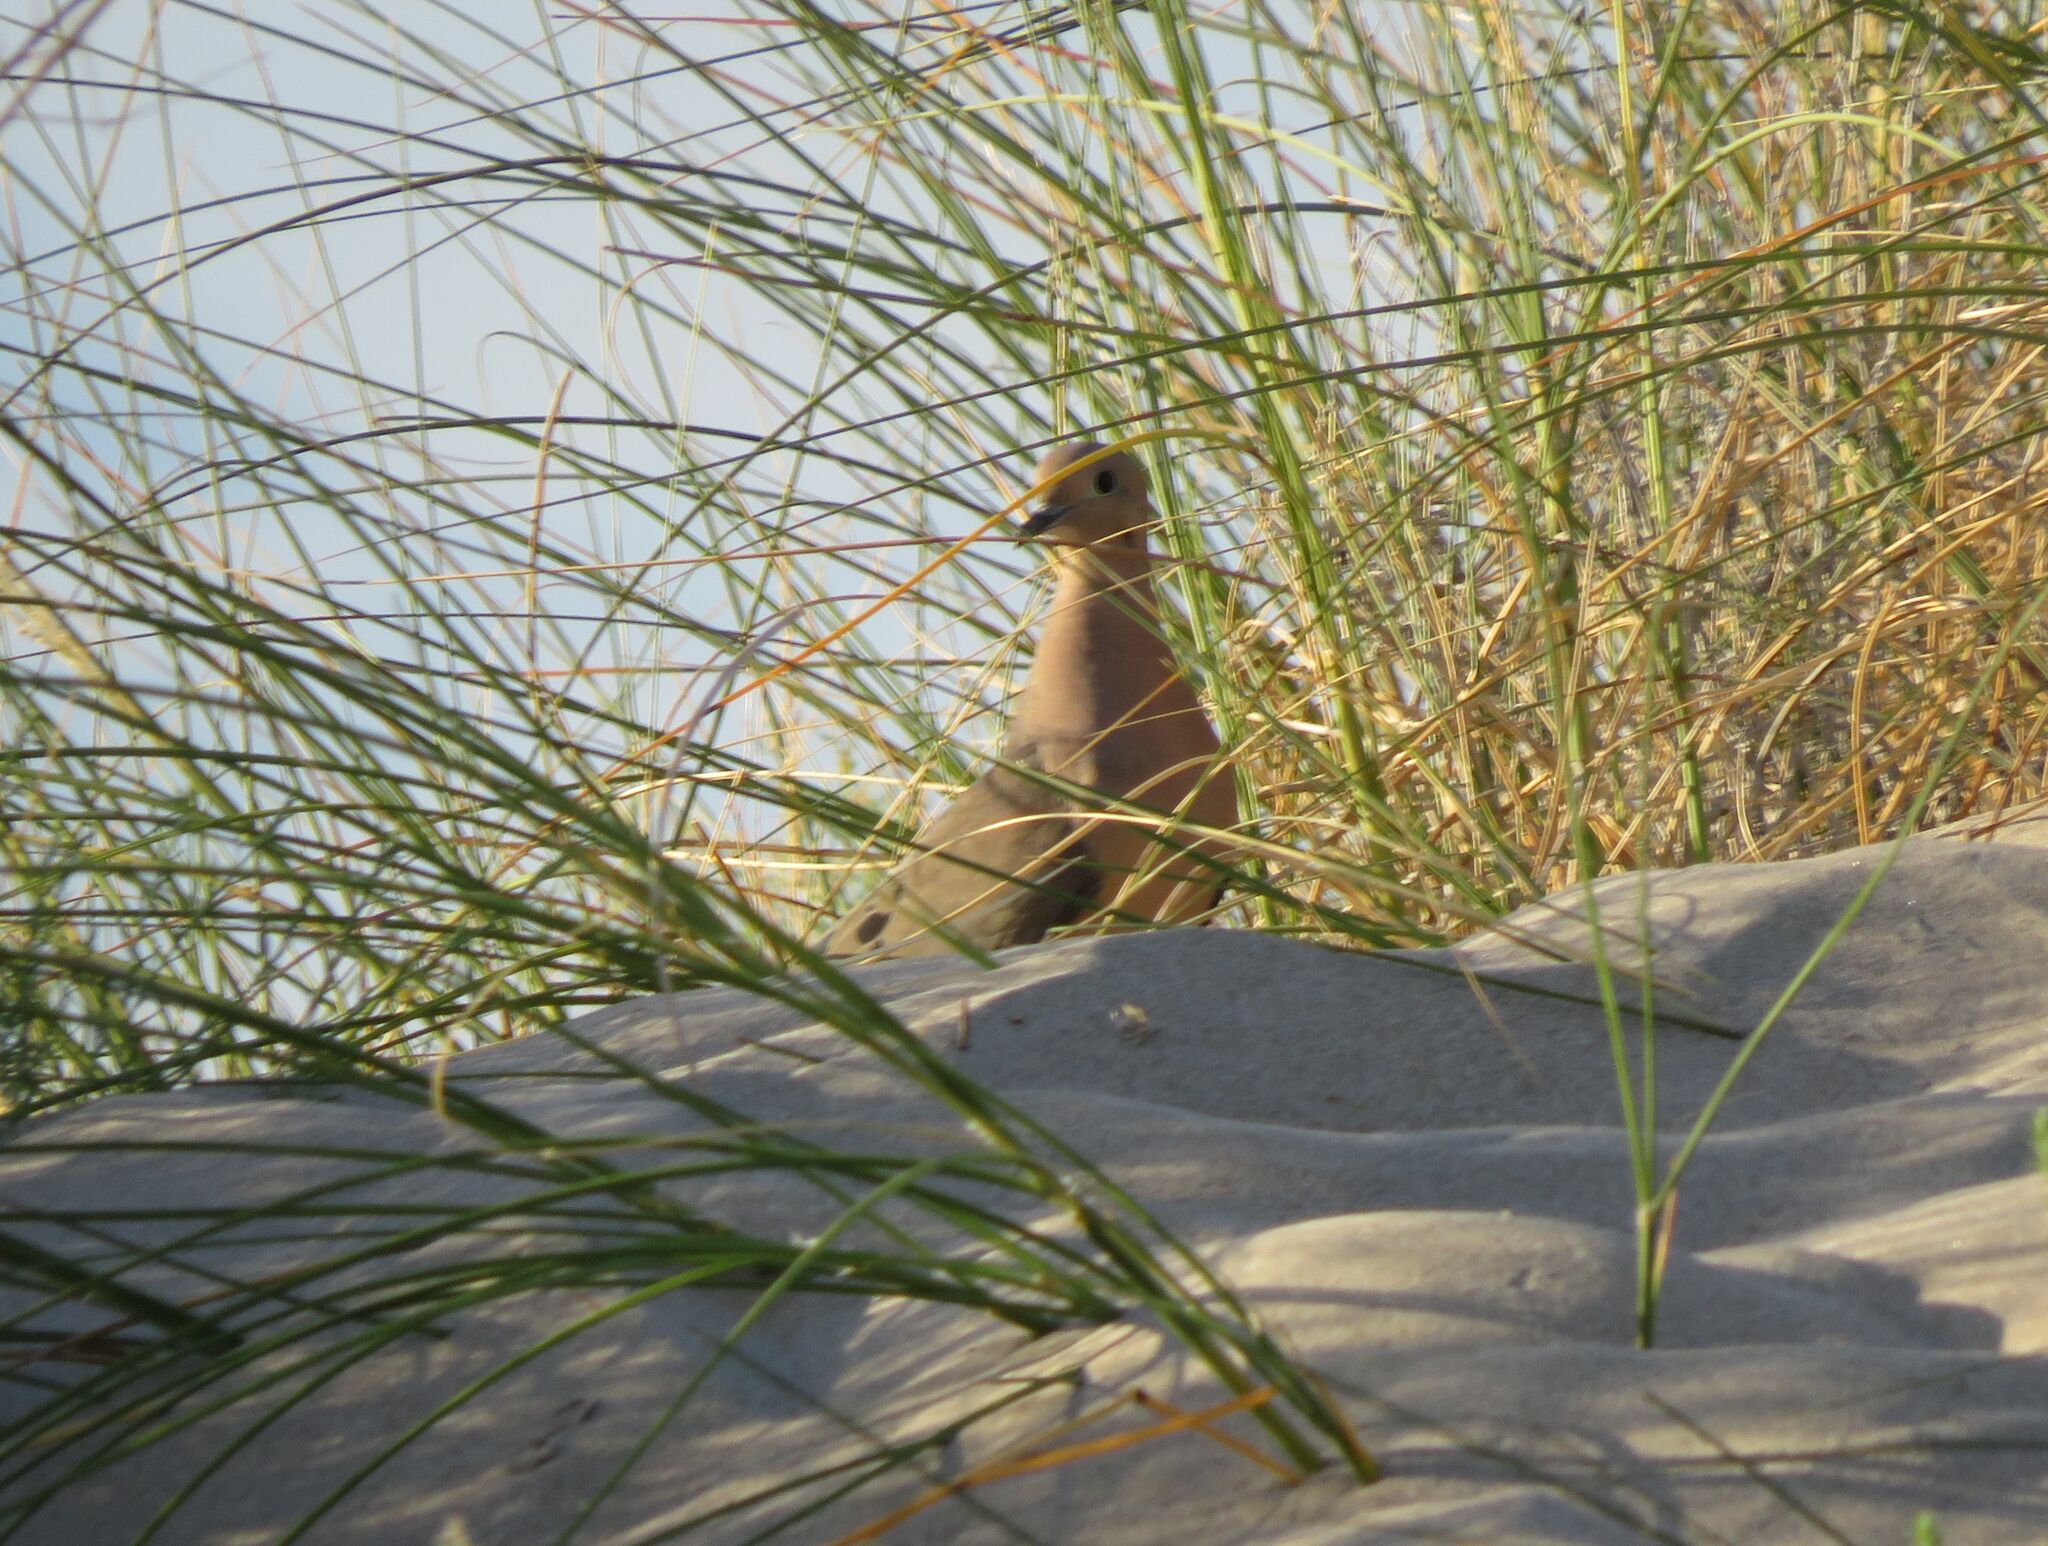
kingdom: Animalia
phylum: Chordata
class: Aves
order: Columbiformes
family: Columbidae
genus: Zenaida
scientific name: Zenaida auriculata
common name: Eared dove
